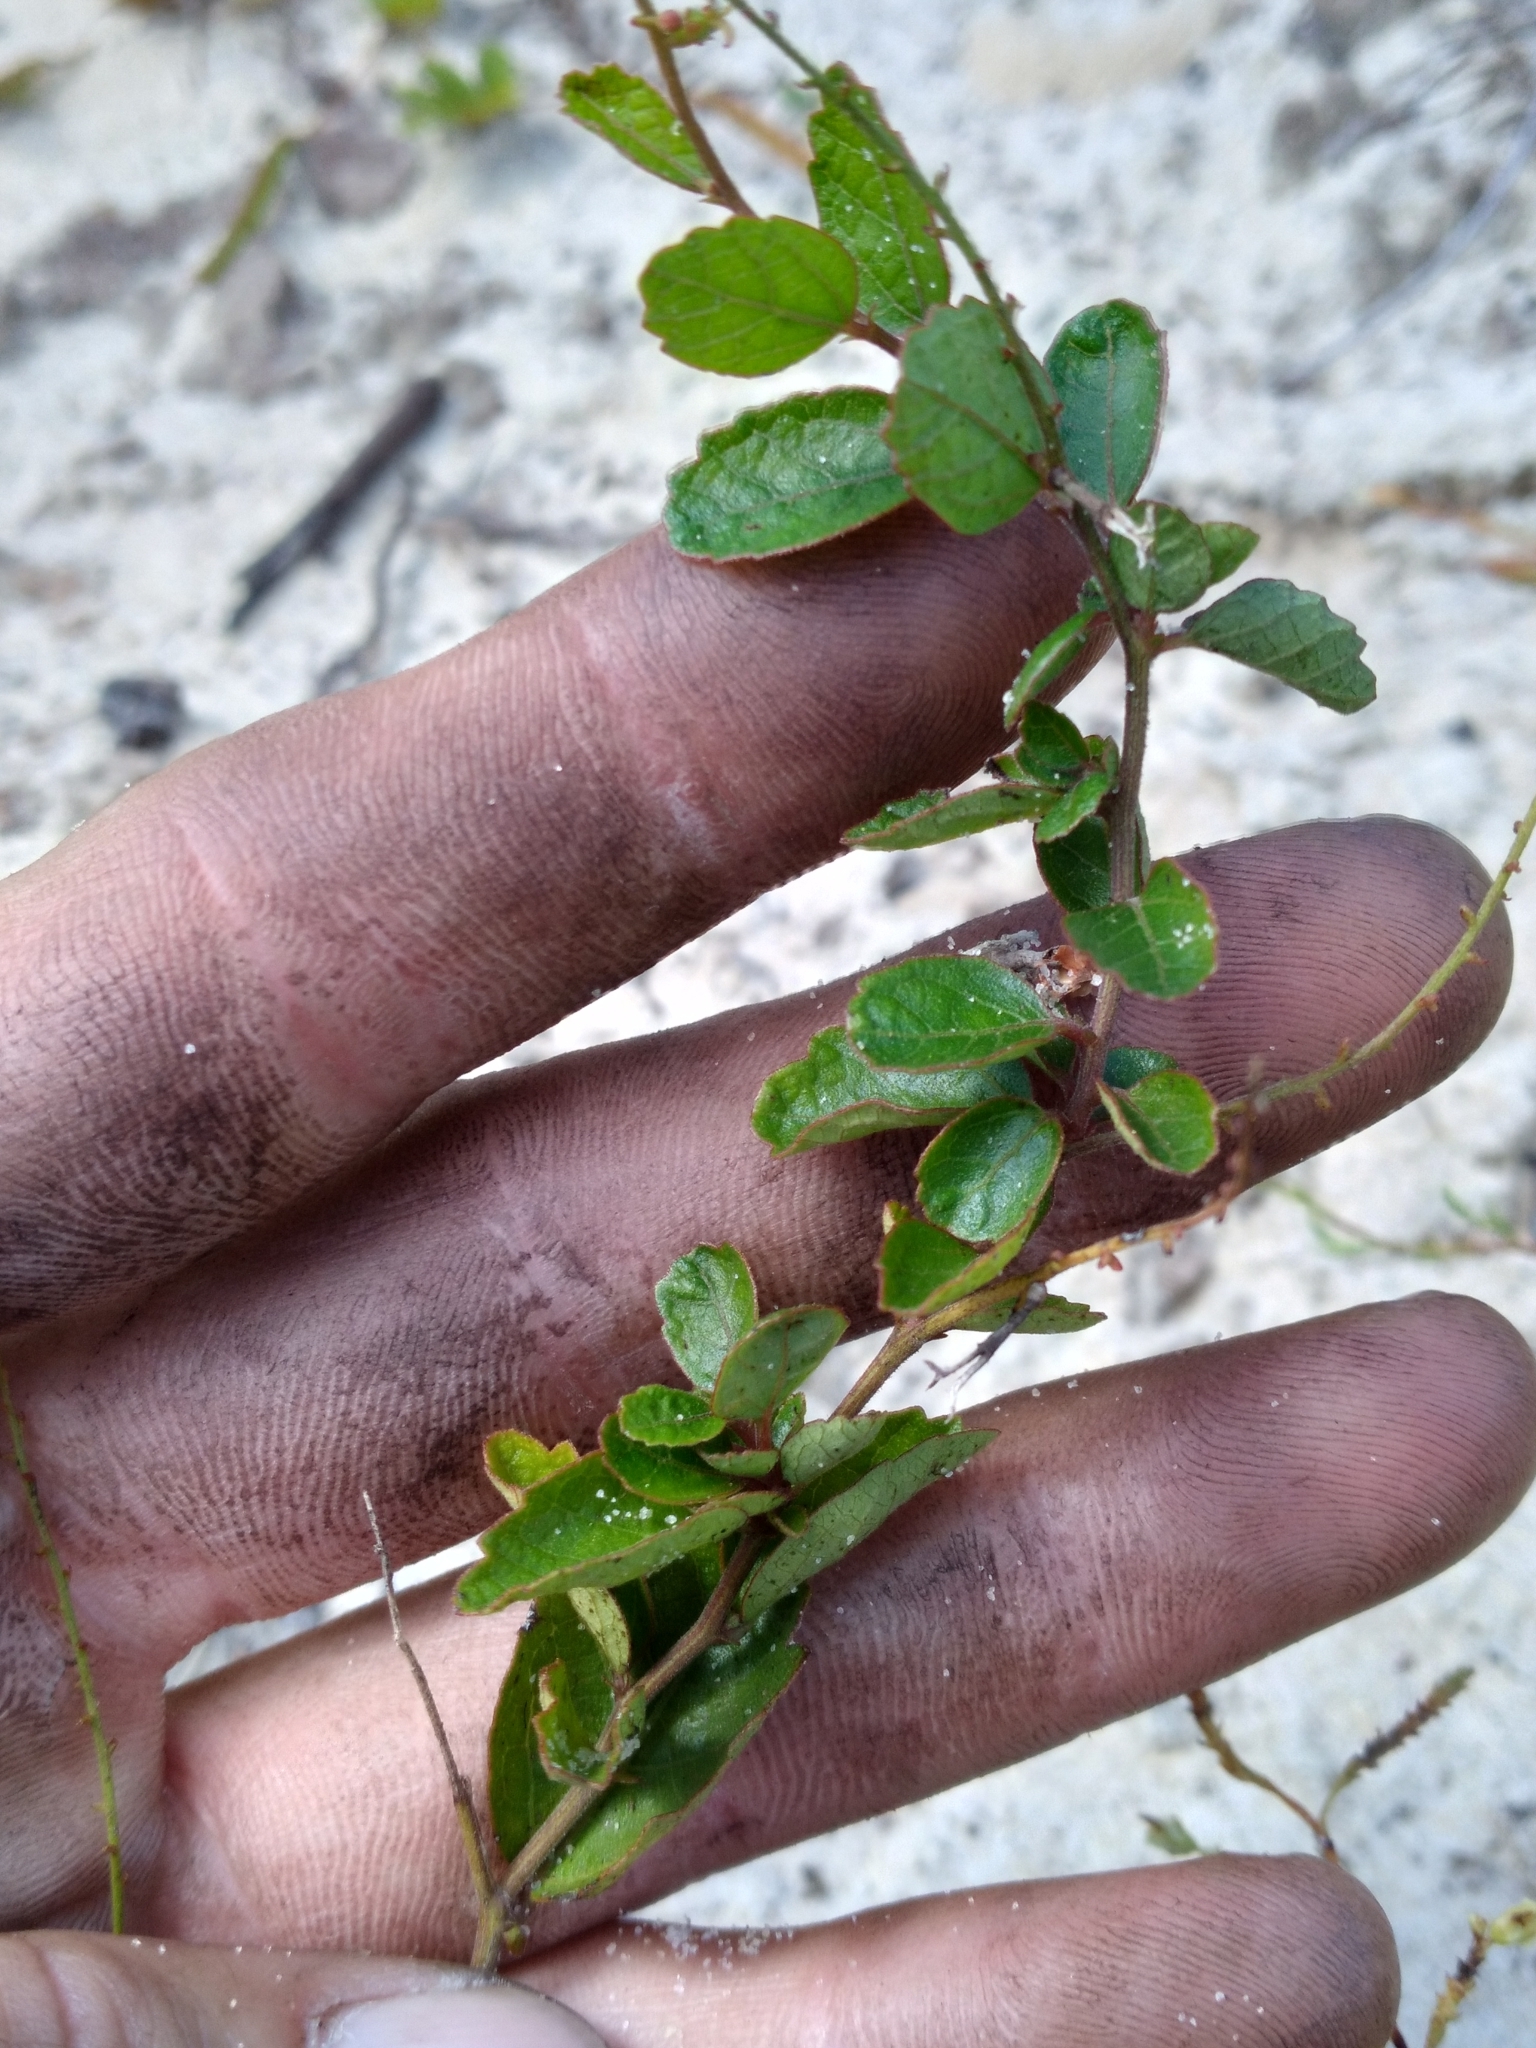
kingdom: Plantae
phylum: Tracheophyta
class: Magnoliopsida
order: Malpighiales
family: Euphorbiaceae
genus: Tragia
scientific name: Tragia smallii
